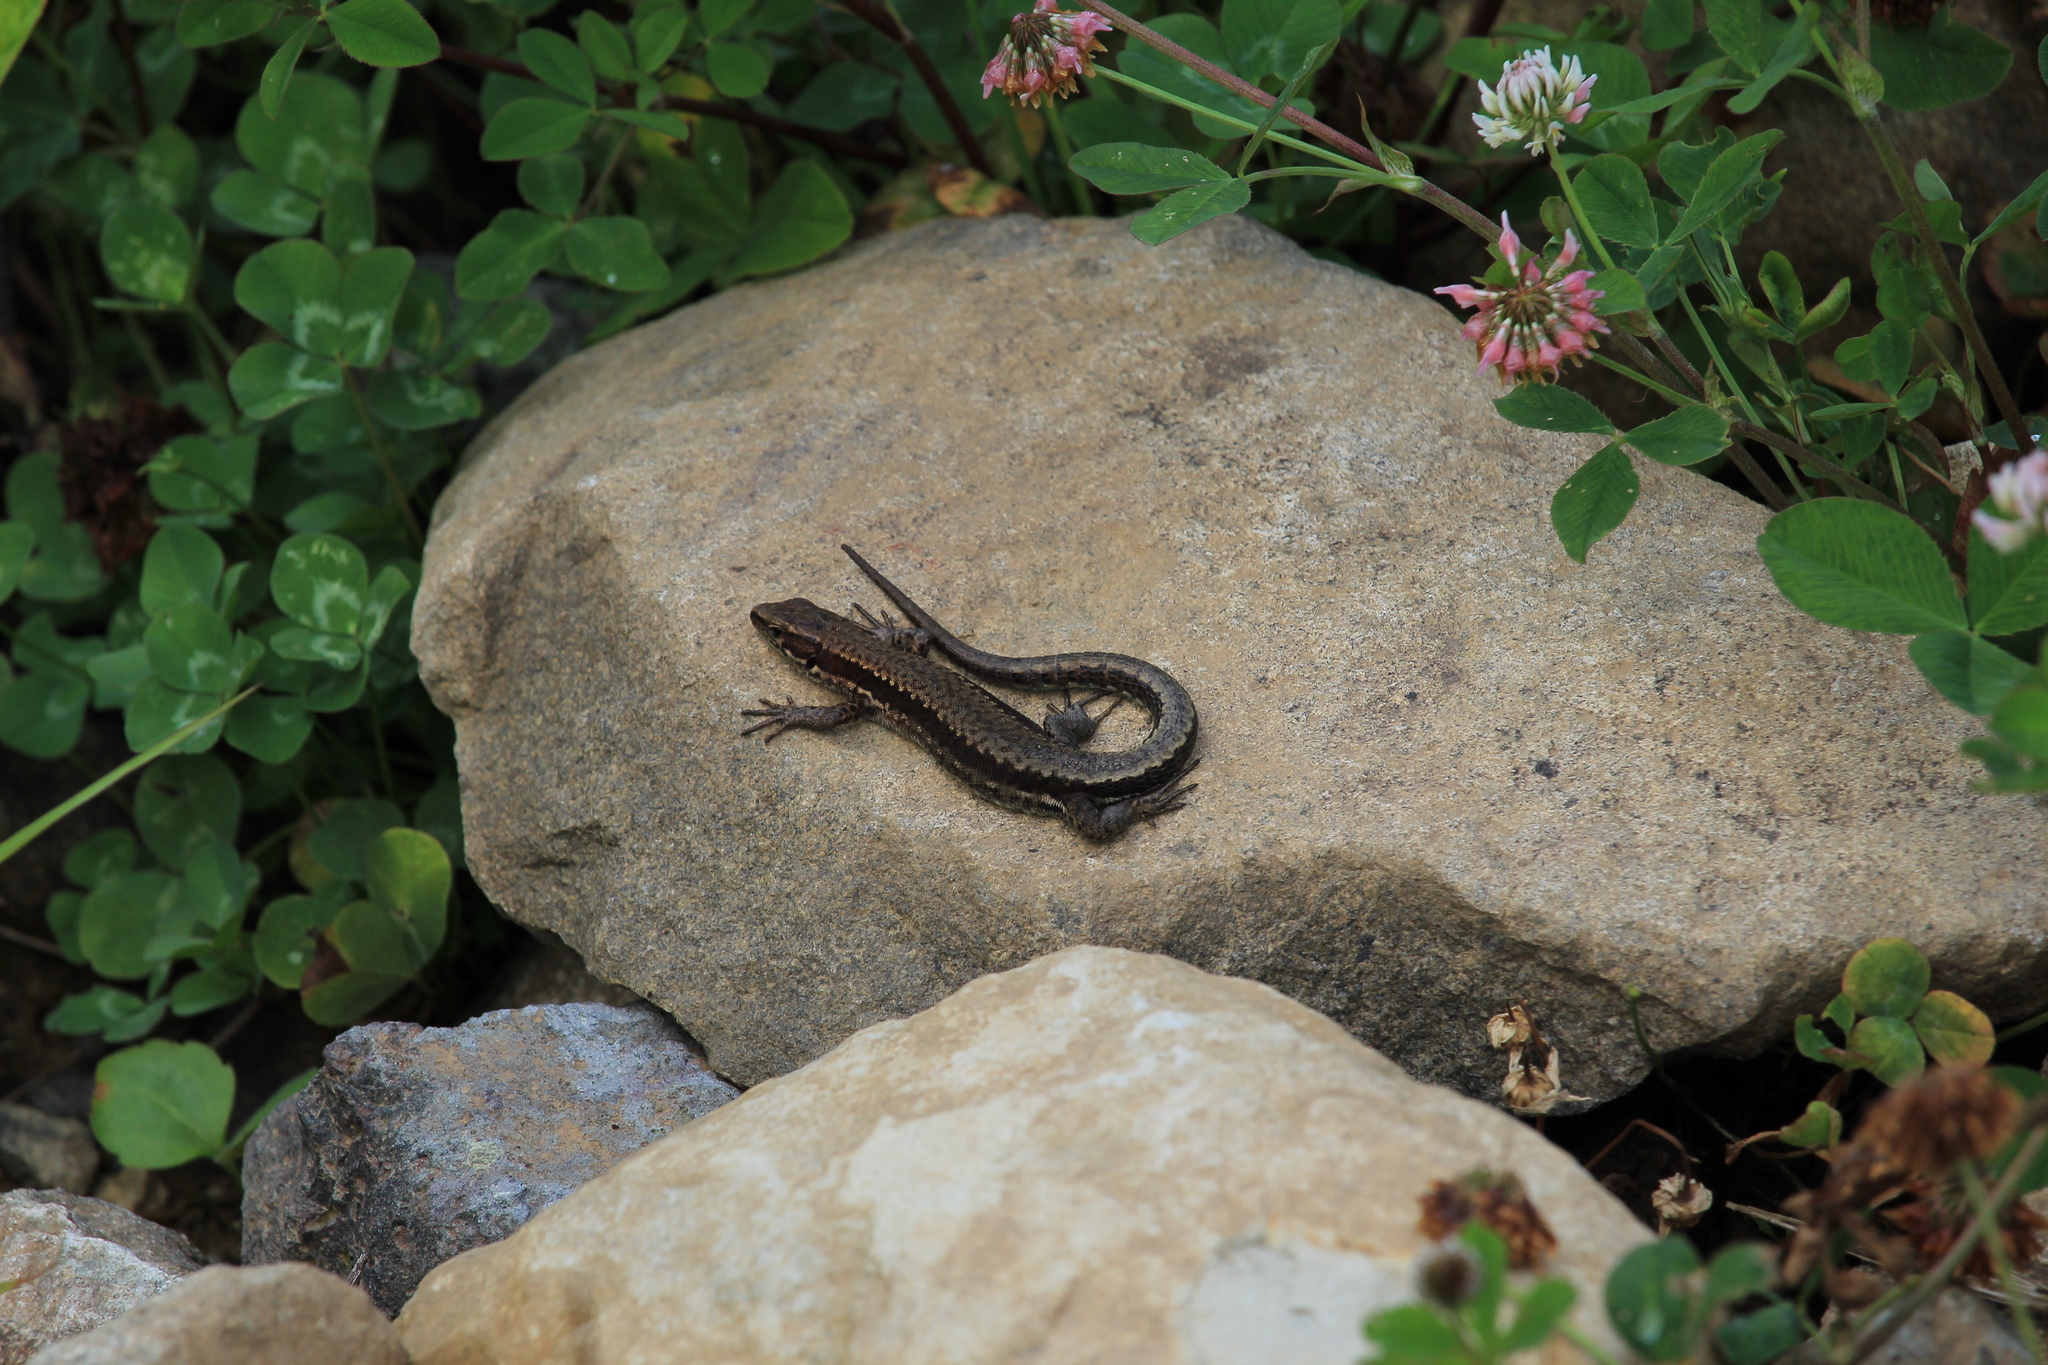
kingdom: Animalia
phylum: Chordata
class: Squamata
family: Lacertidae
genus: Darevskia
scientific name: Darevskia derjugini
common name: Derjugin's lizard
